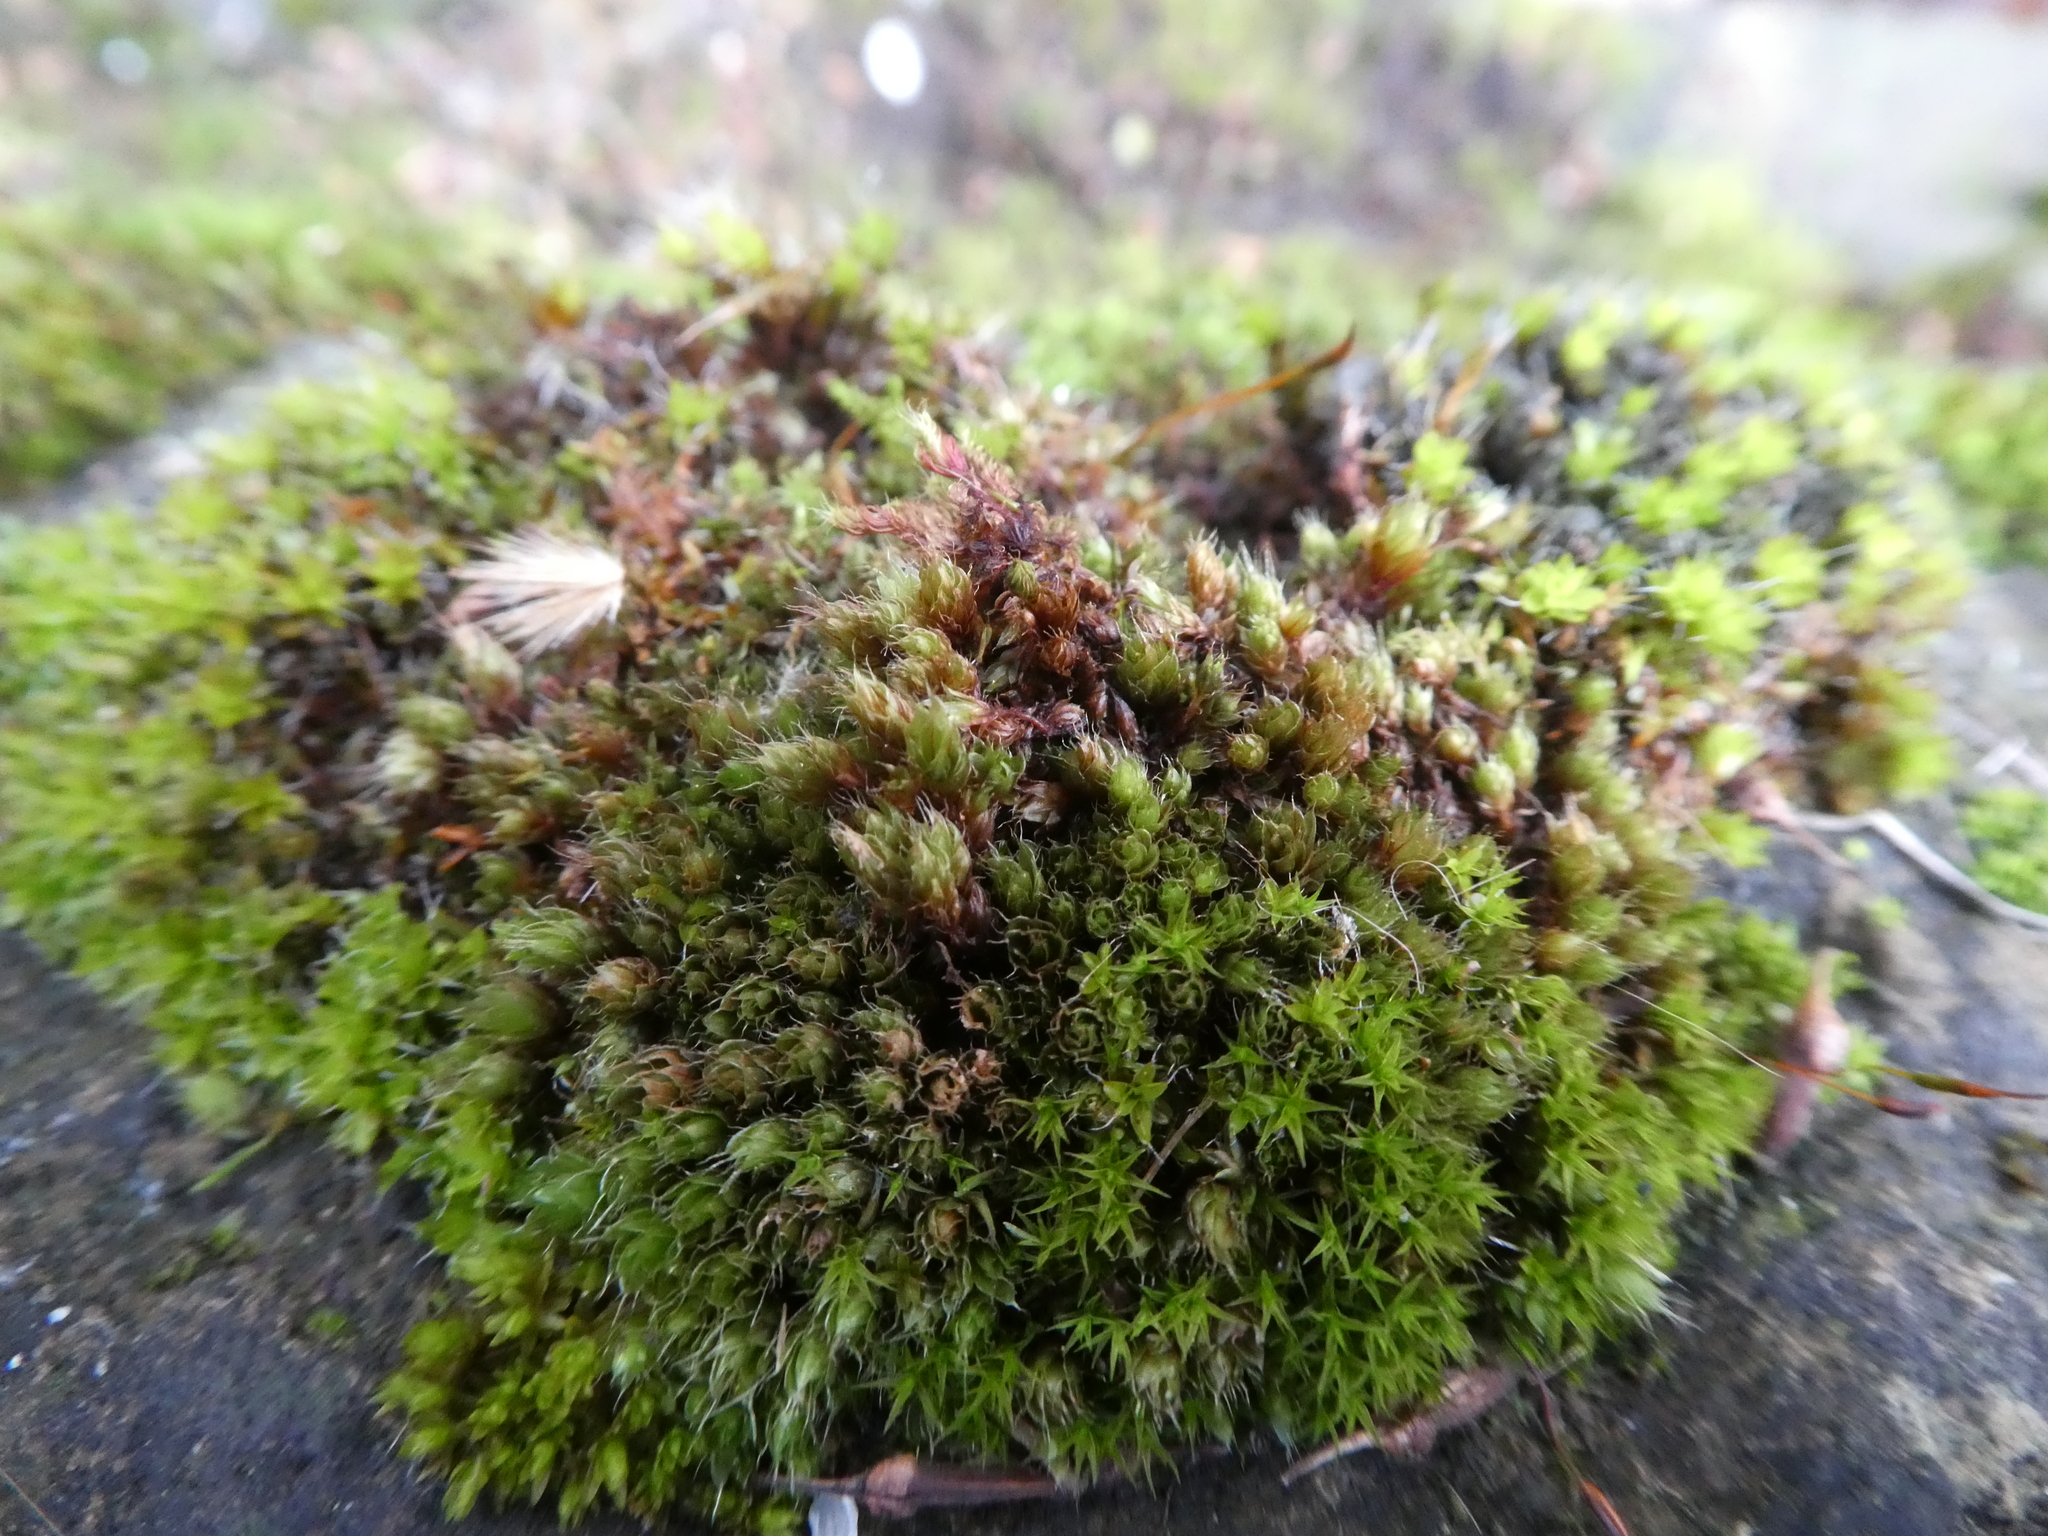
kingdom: Plantae
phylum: Bryophyta
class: Bryopsida
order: Bryales
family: Bryaceae
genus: Rosulabryum
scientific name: Rosulabryum capillare
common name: Capillary thread-moss
